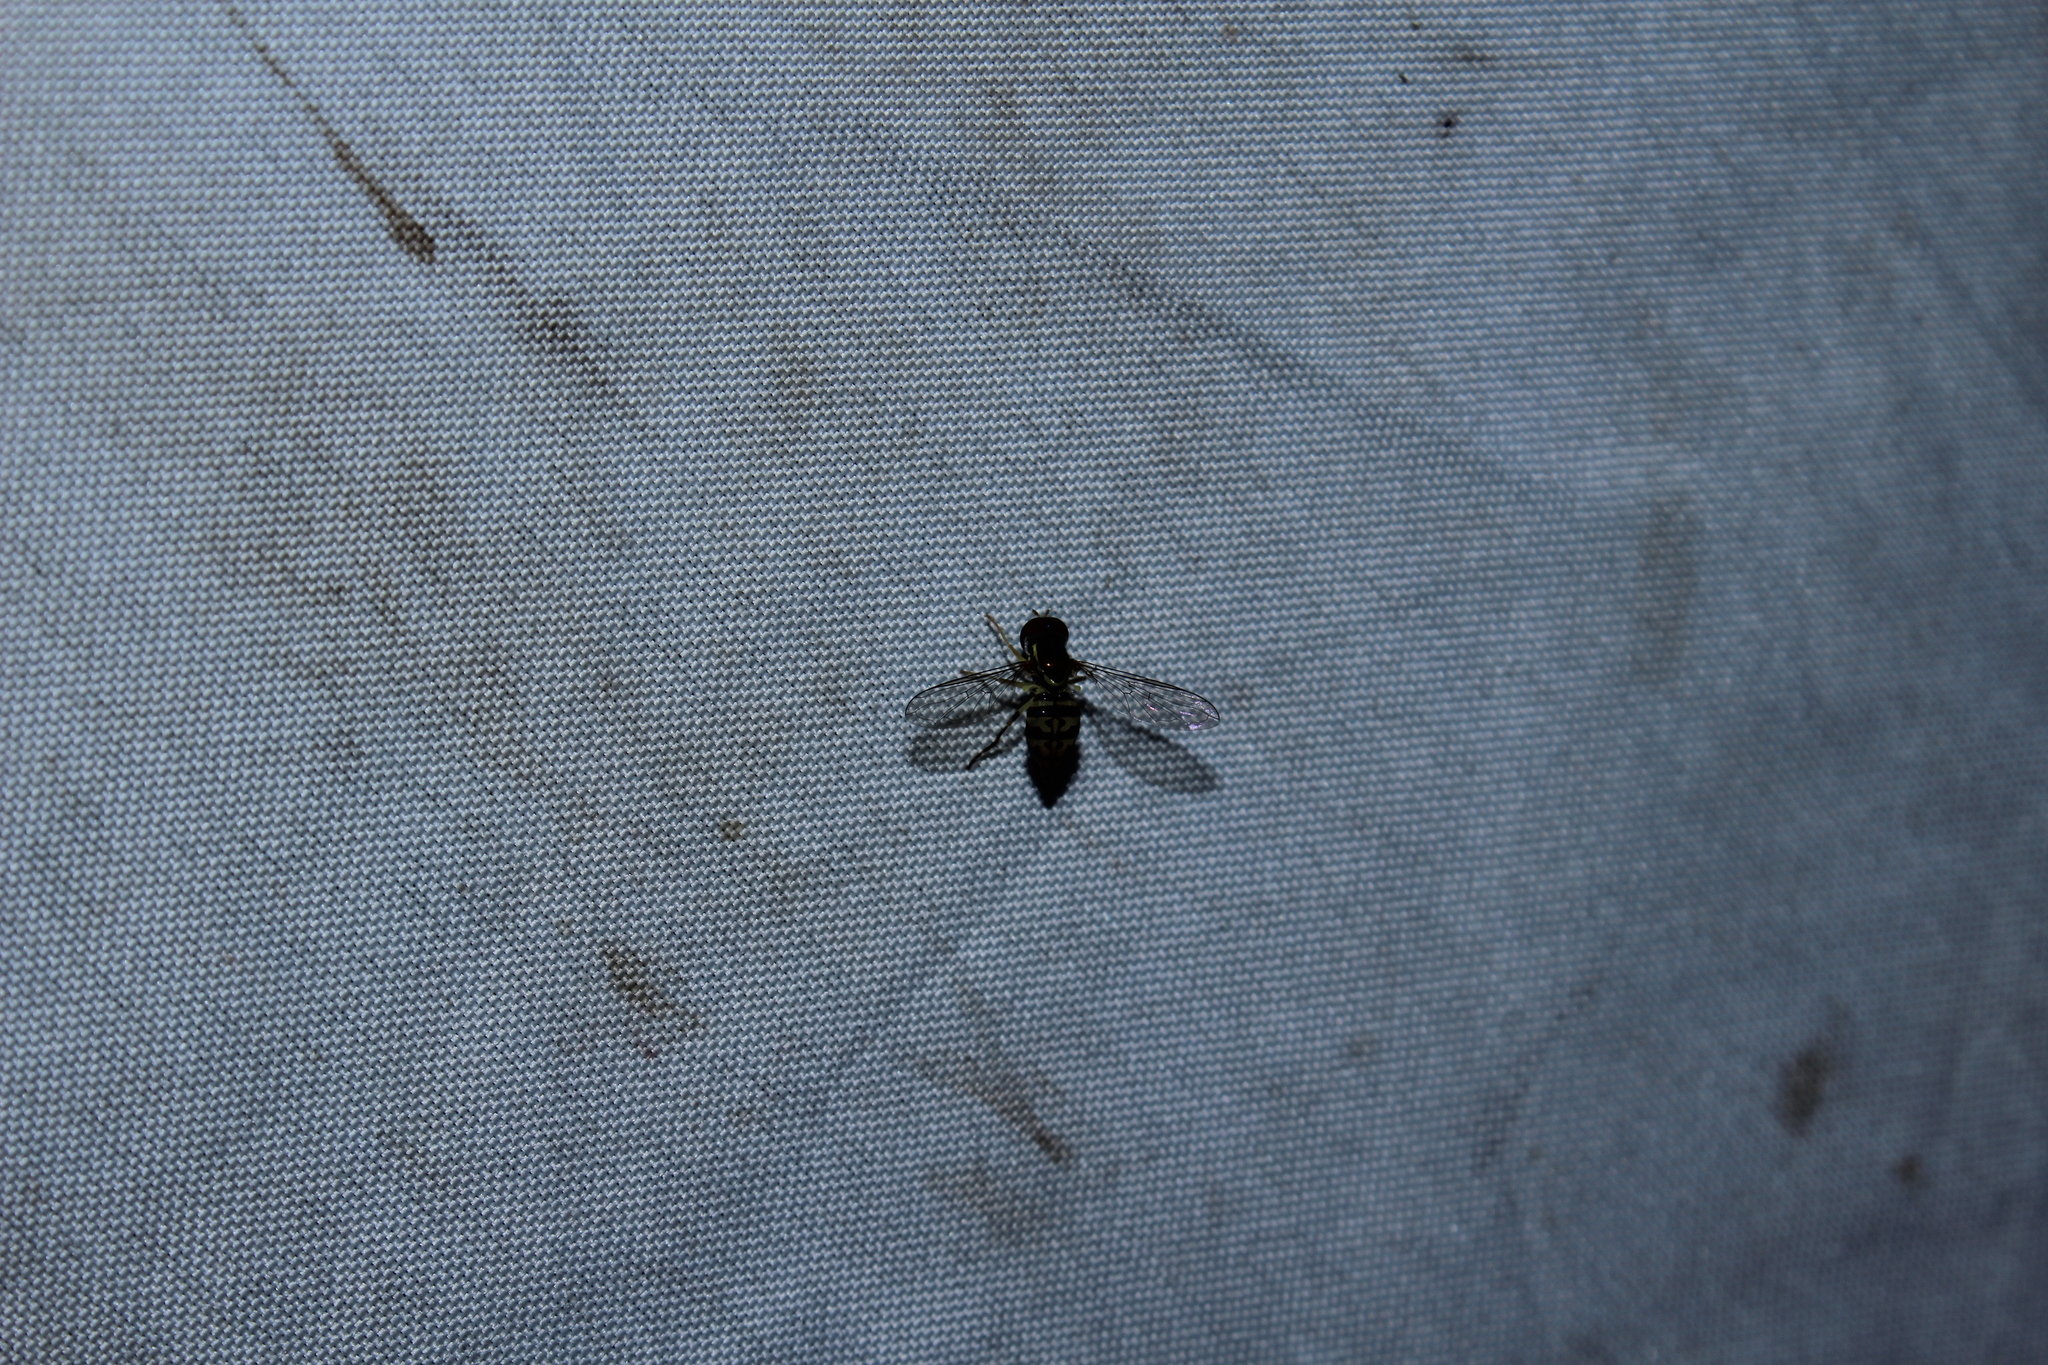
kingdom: Animalia
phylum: Arthropoda
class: Insecta
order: Diptera
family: Syrphidae
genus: Toxomerus
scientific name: Toxomerus geminatus
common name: Eastern calligrapher
